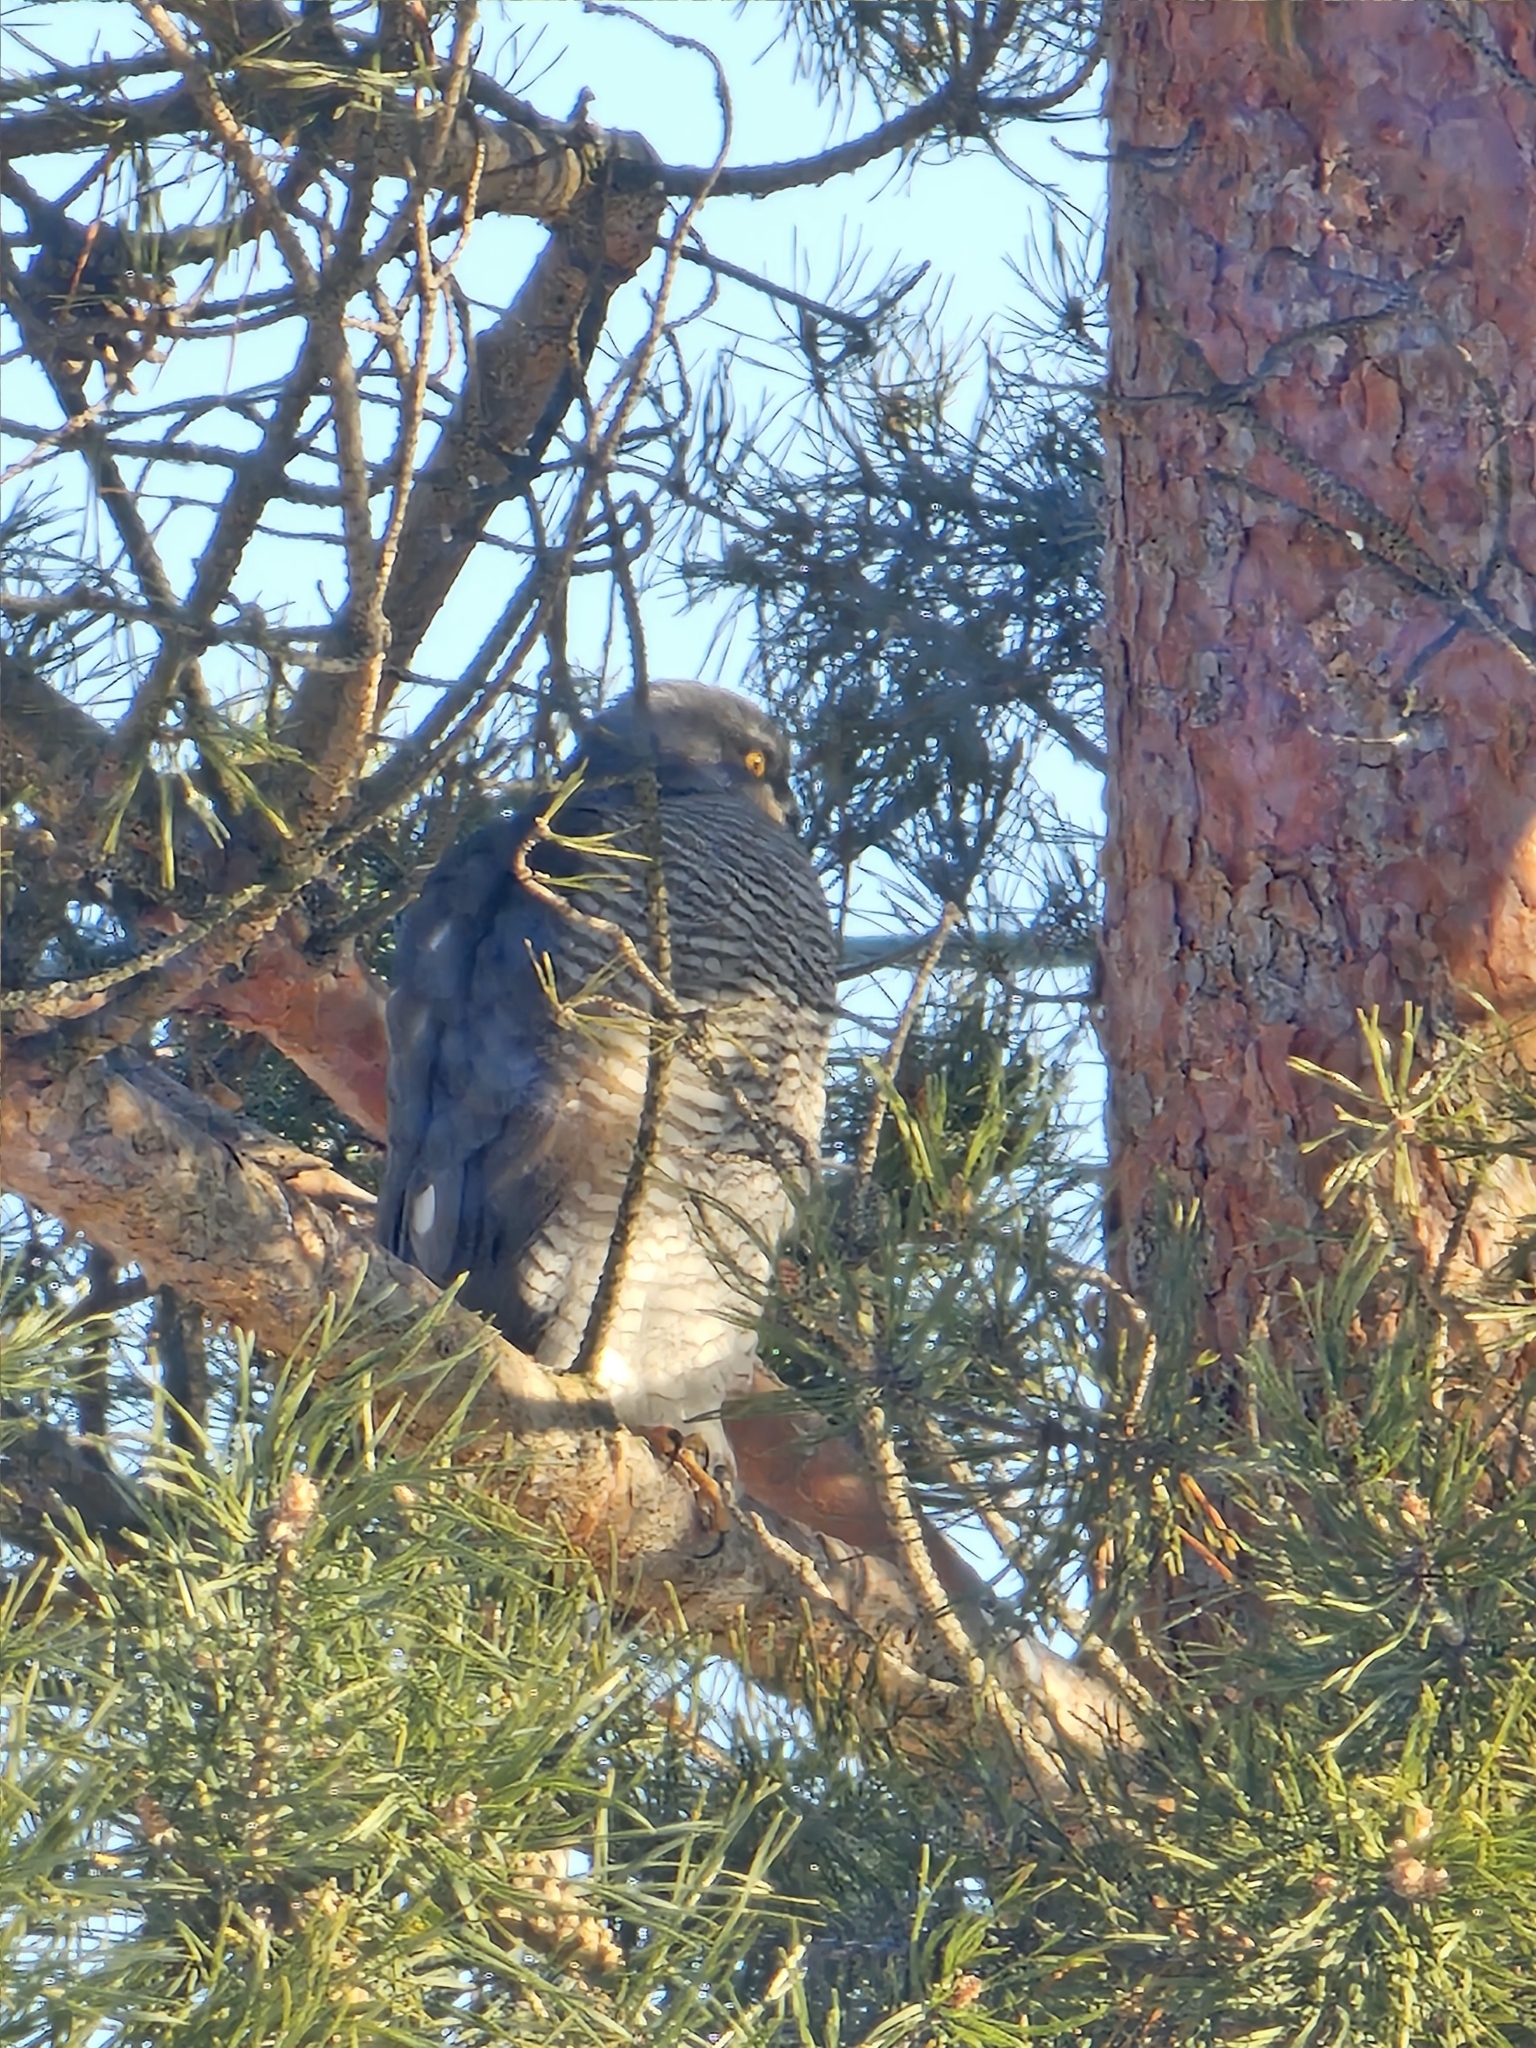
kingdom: Animalia
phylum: Chordata
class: Aves
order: Accipitriformes
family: Accipitridae
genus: Accipiter
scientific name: Accipiter nisus
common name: Eurasian sparrowhawk
